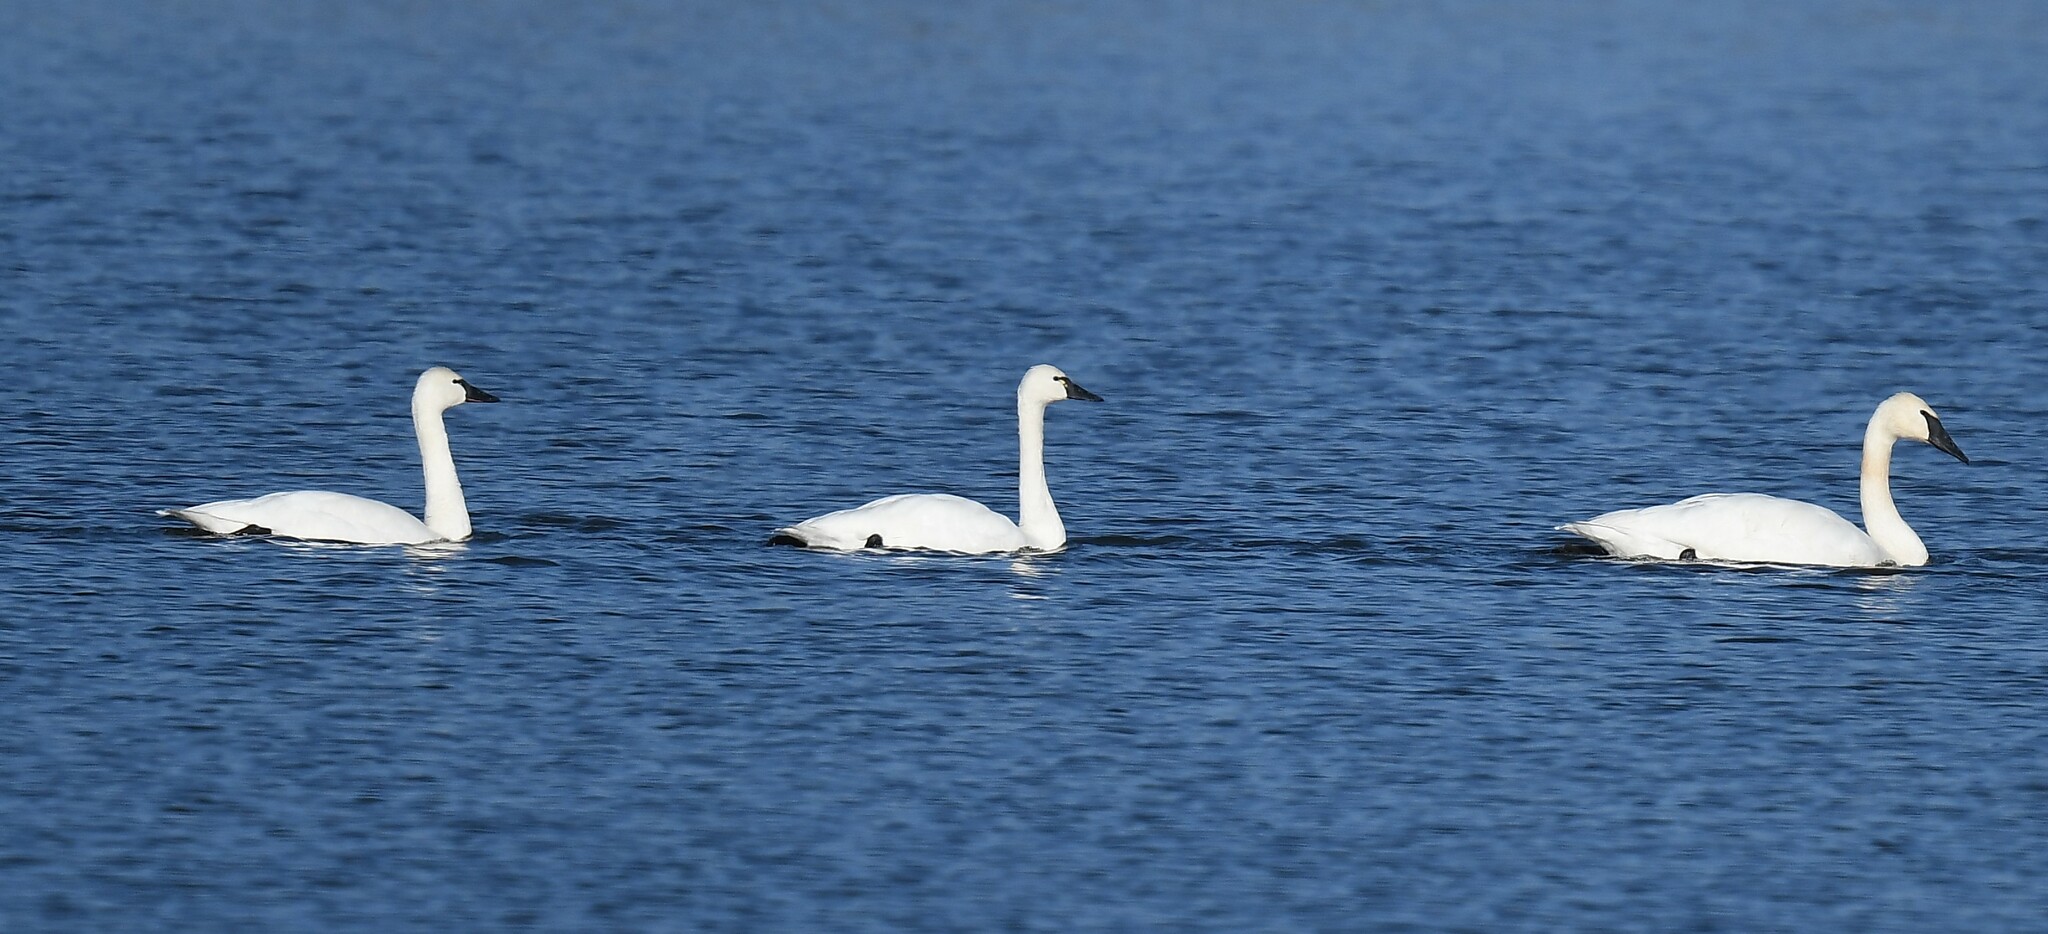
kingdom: Animalia
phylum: Chordata
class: Aves
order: Anseriformes
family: Anatidae
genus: Cygnus
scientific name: Cygnus buccinator
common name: Trumpeter swan
